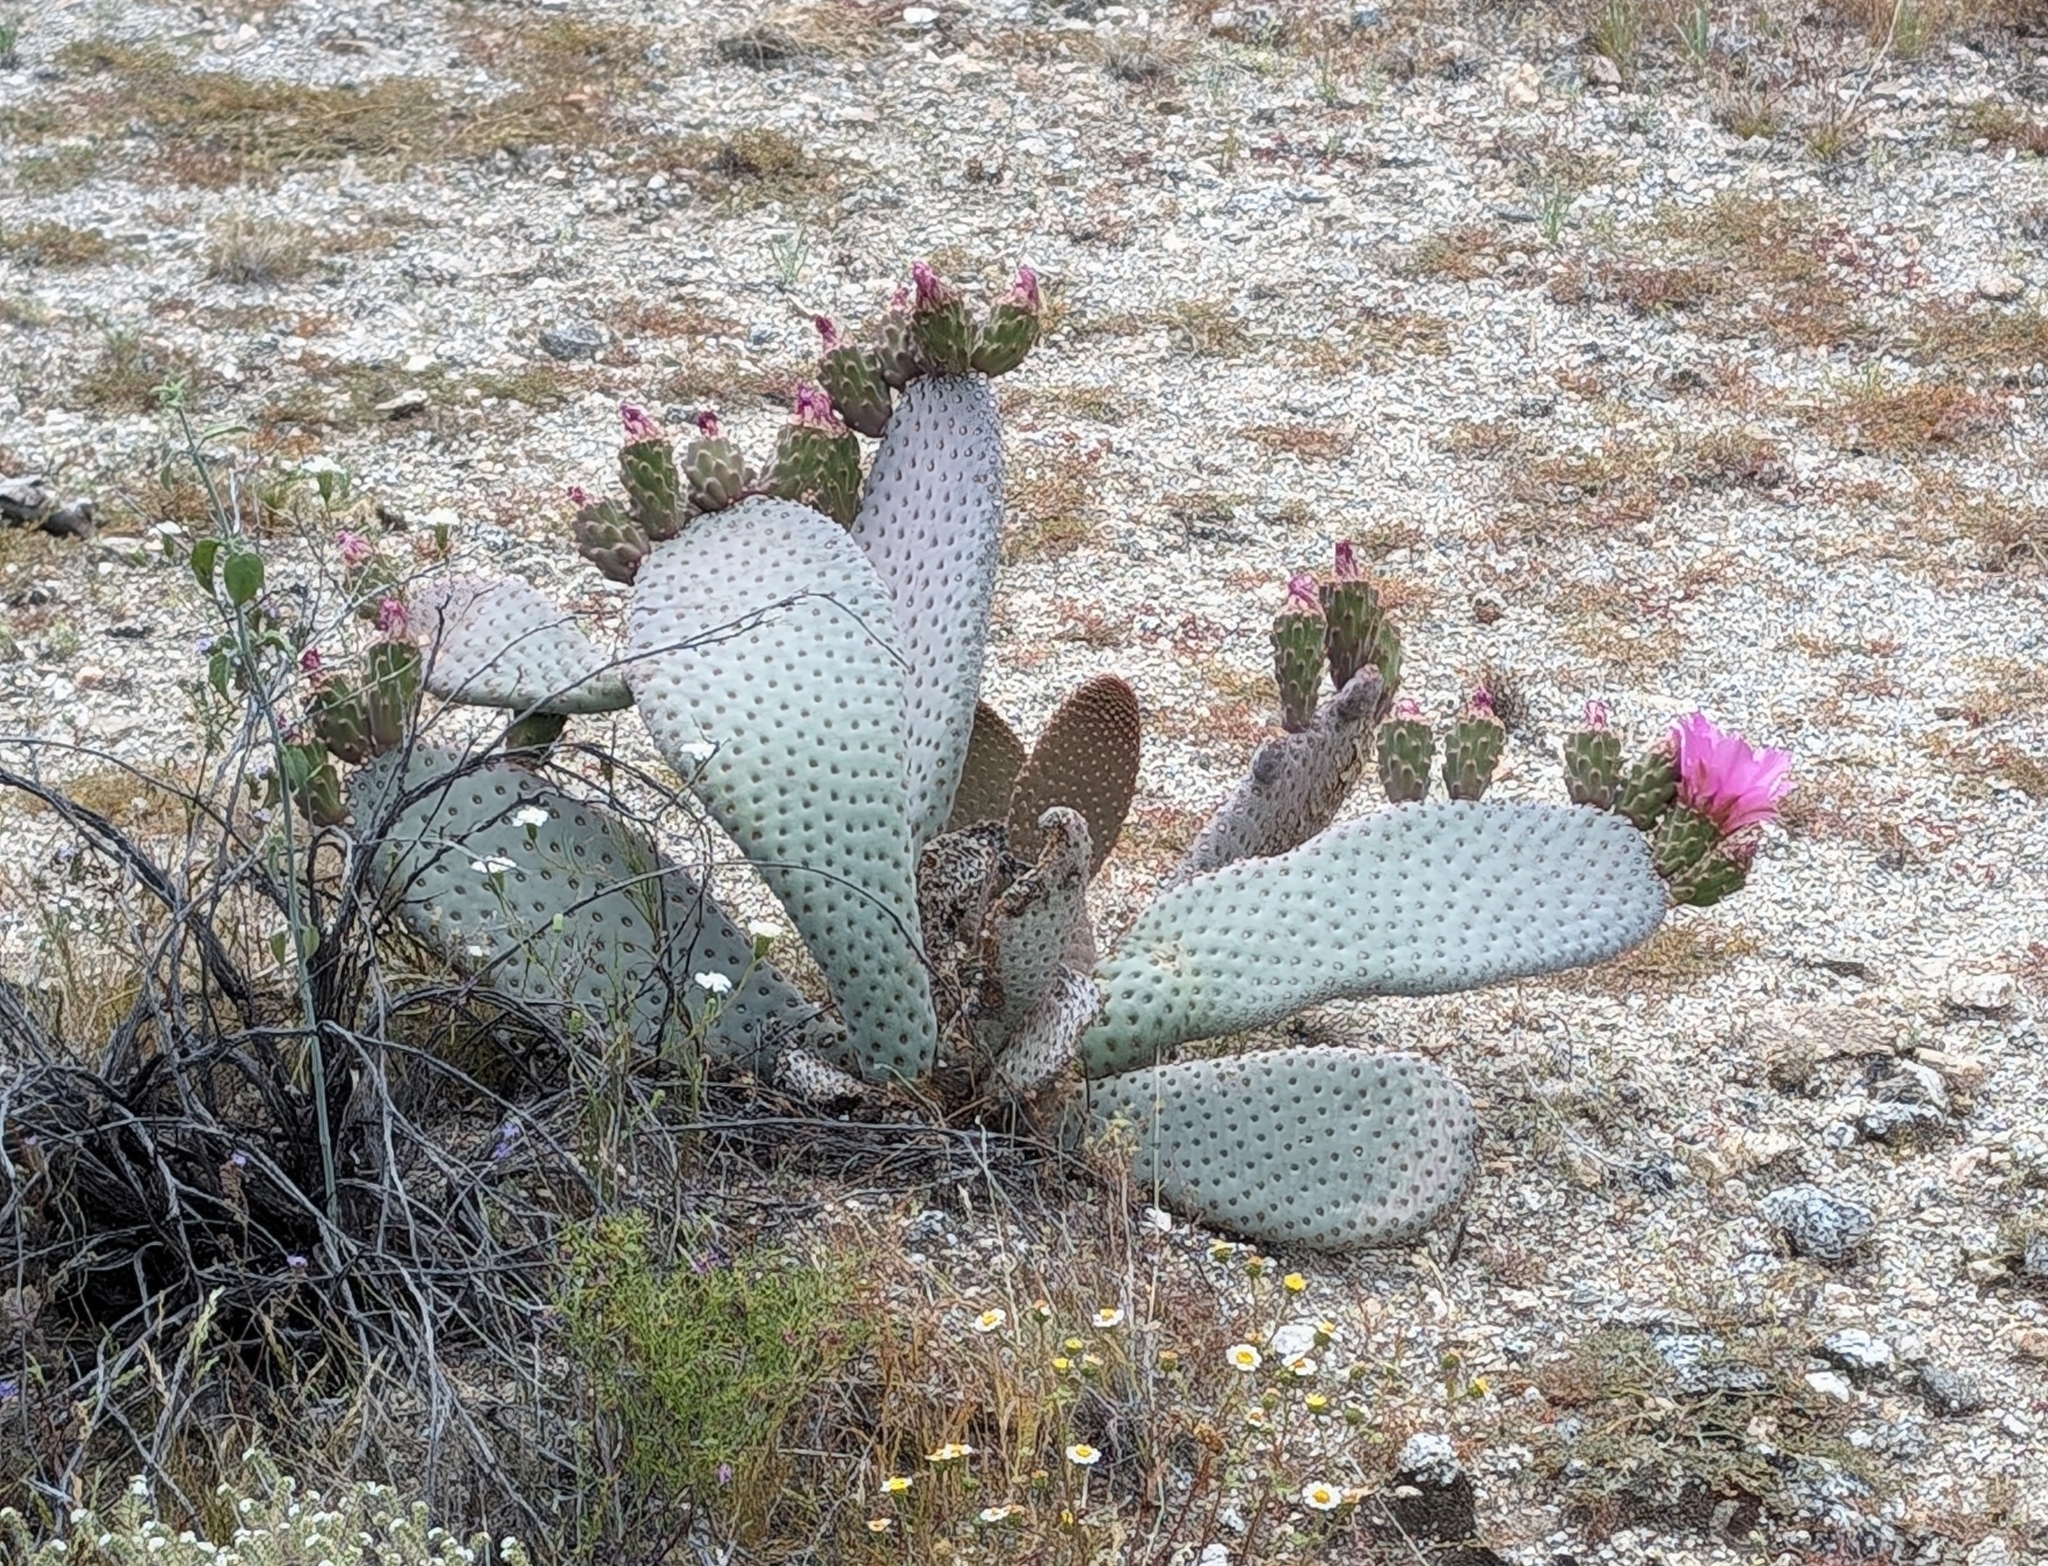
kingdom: Plantae
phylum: Tracheophyta
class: Magnoliopsida
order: Caryophyllales
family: Cactaceae
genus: Opuntia
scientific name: Opuntia basilaris
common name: Beavertail prickly-pear
